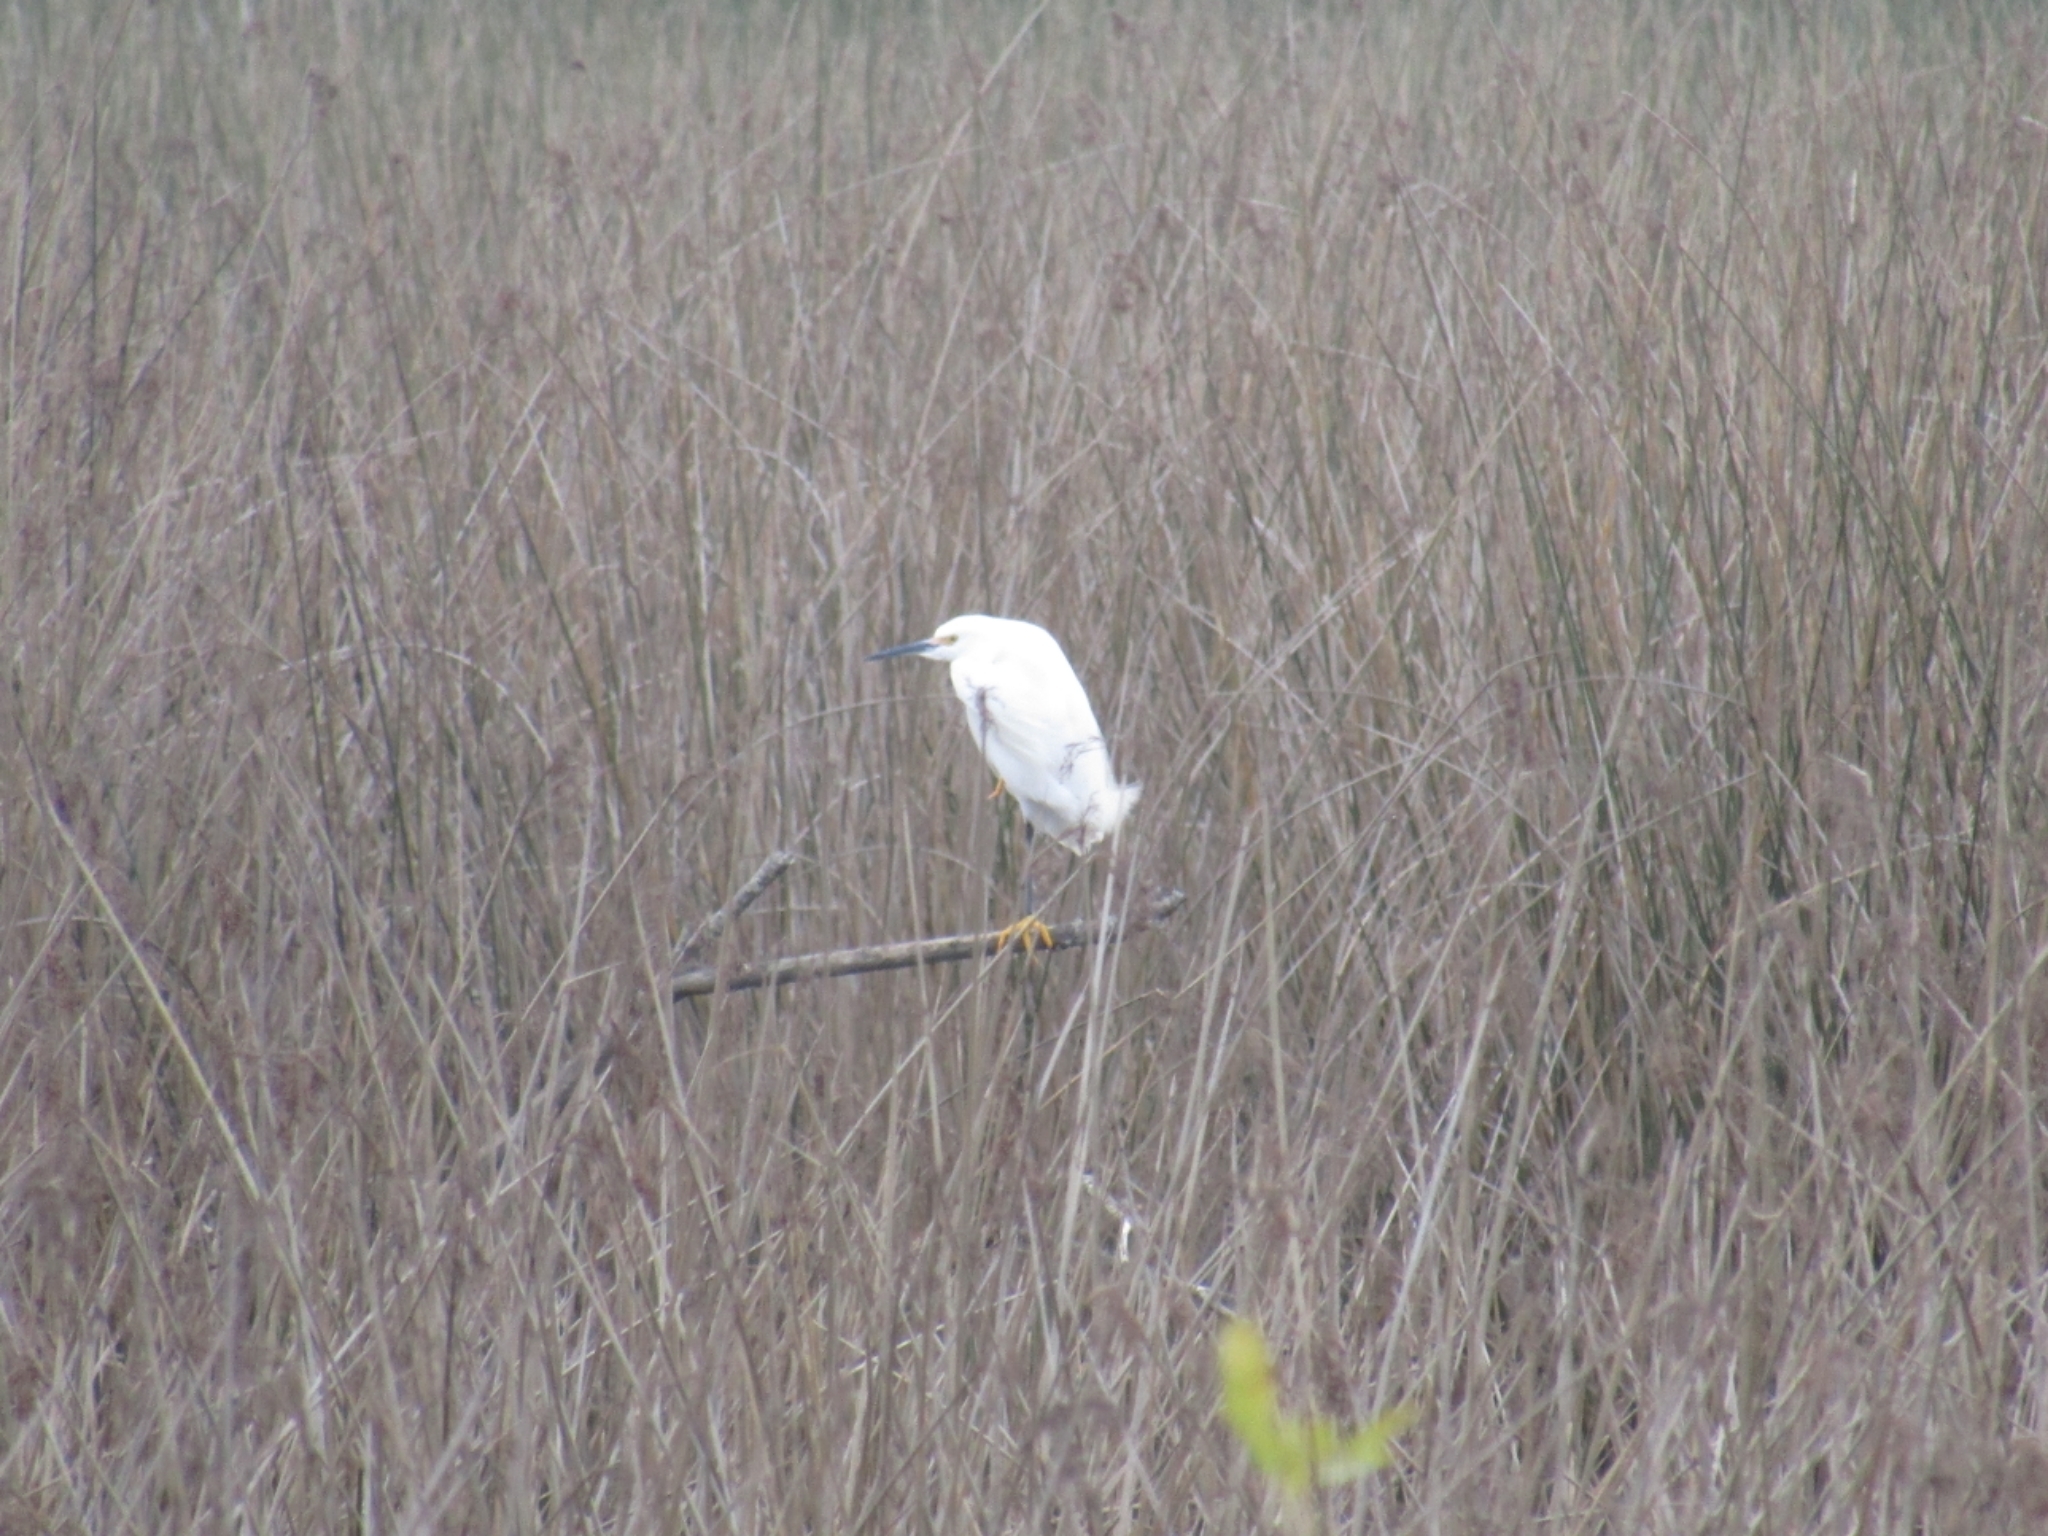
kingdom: Animalia
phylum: Chordata
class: Aves
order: Pelecaniformes
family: Ardeidae
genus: Egretta
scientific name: Egretta thula
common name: Snowy egret
